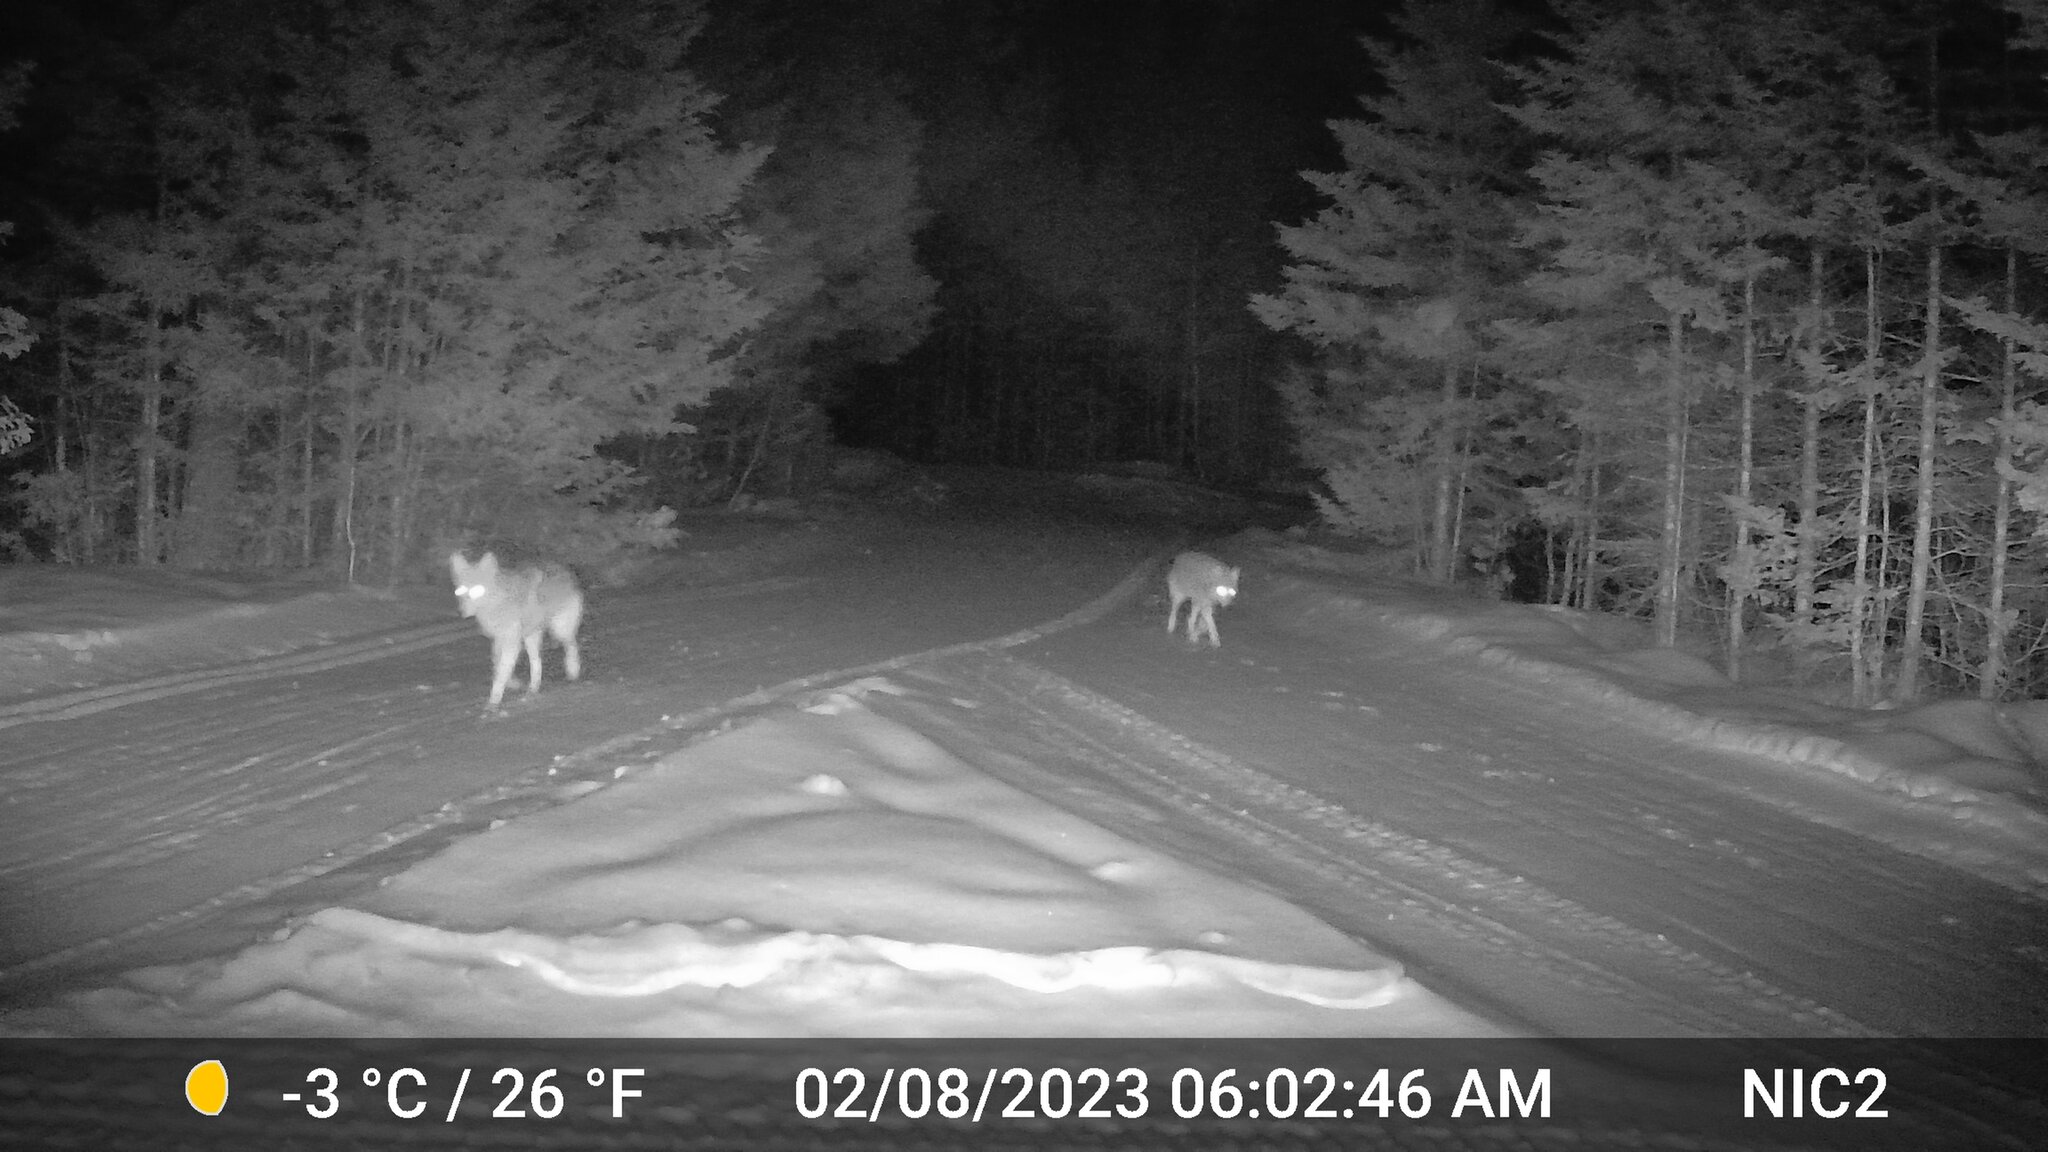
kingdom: Animalia
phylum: Chordata
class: Mammalia
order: Carnivora
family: Canidae
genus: Canis
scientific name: Canis latrans
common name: Coyote
